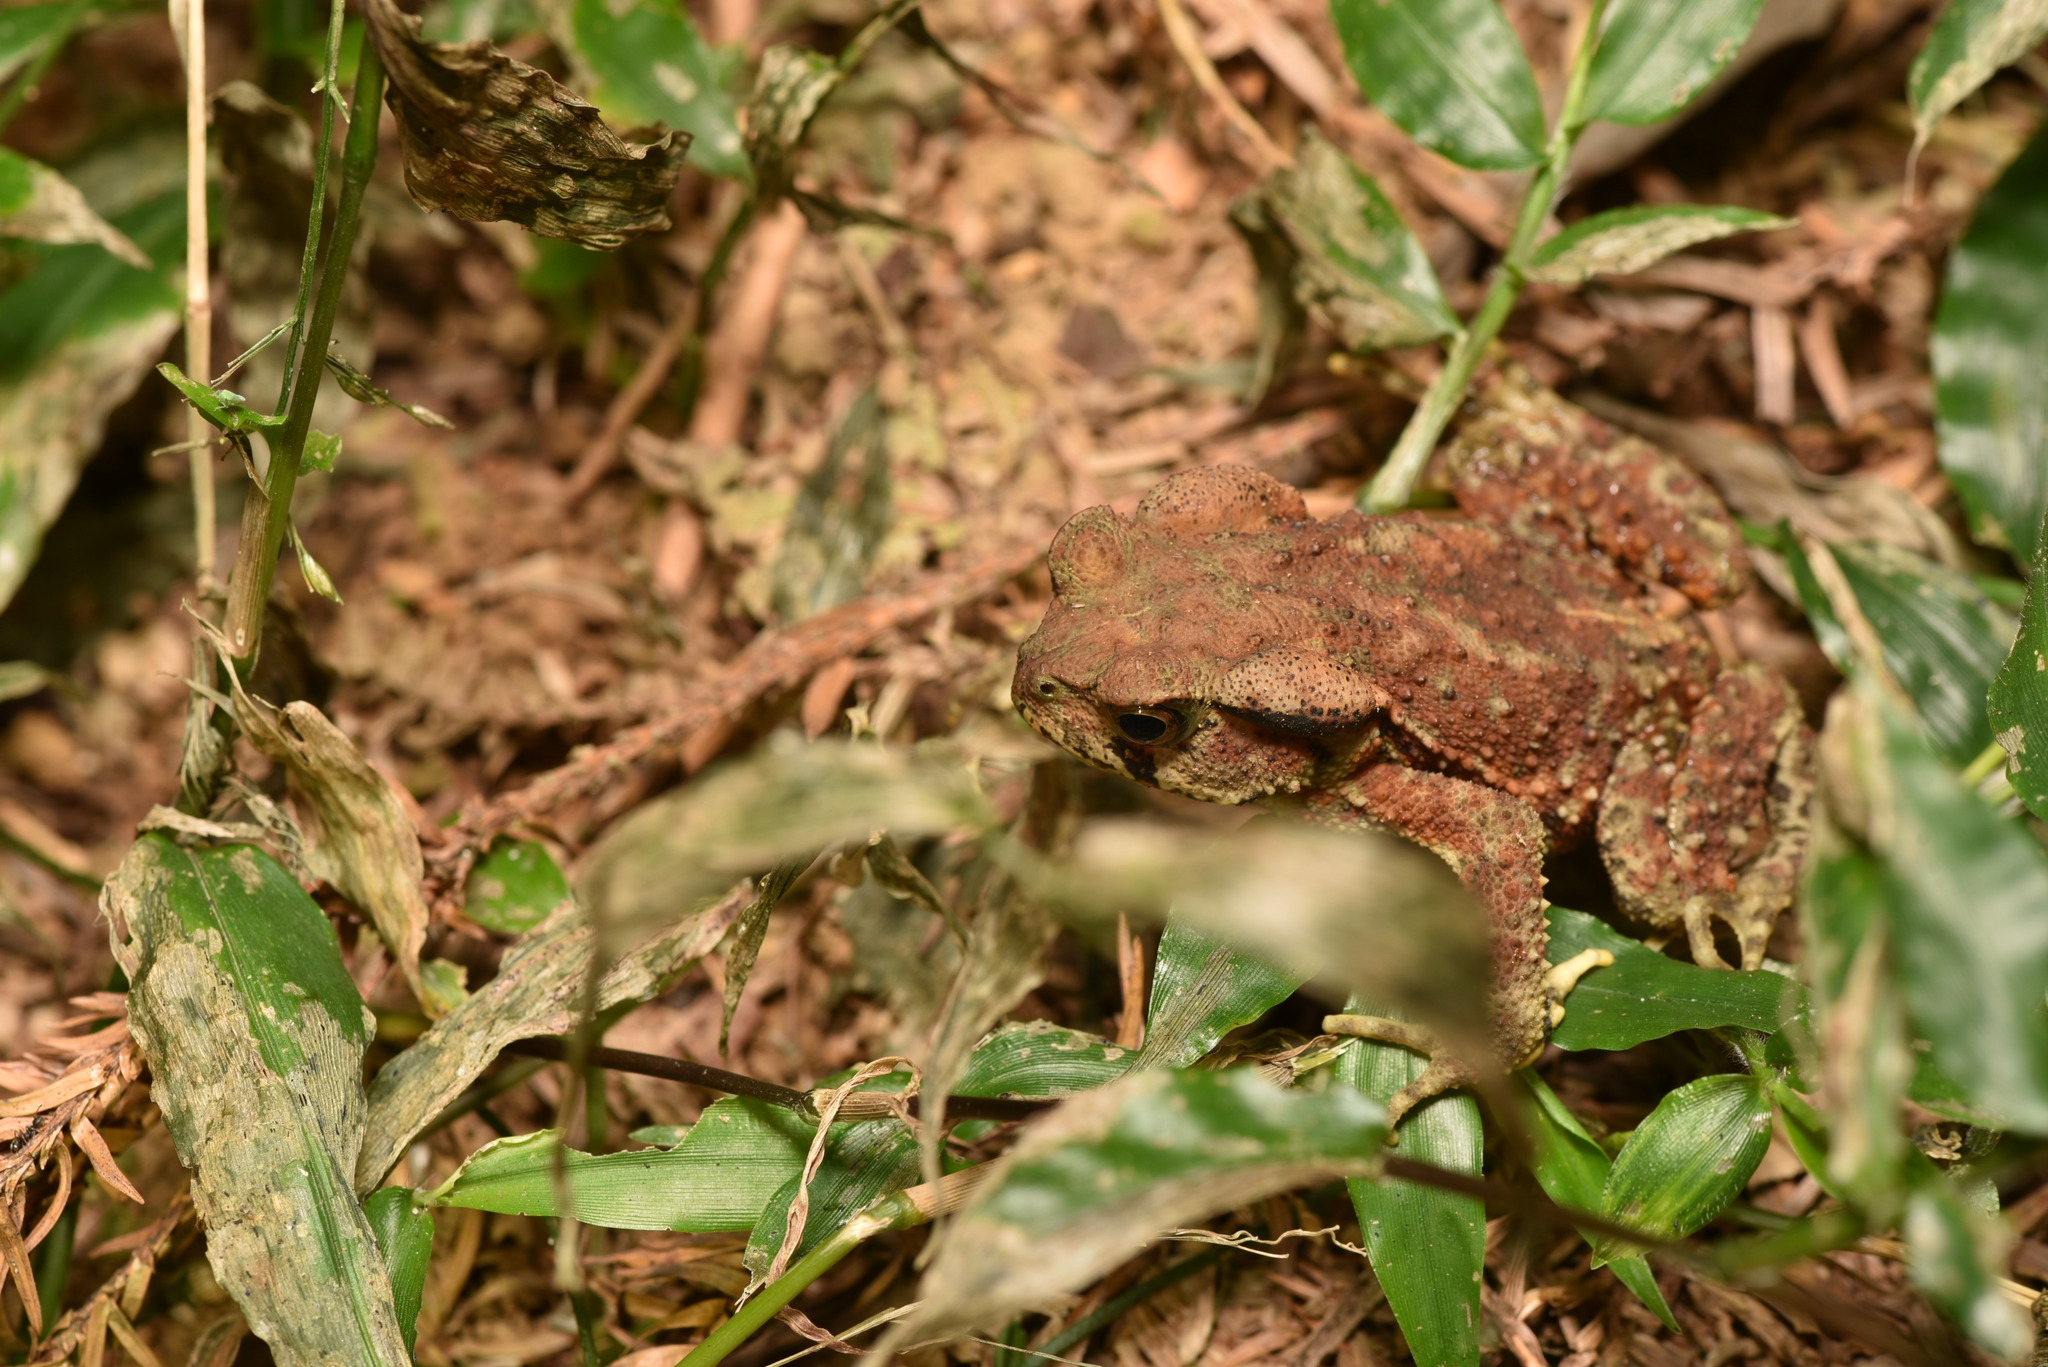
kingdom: Animalia
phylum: Chordata
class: Amphibia
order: Anura
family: Bufonidae
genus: Bufo
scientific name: Bufo bankorensis
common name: Bankor toad
